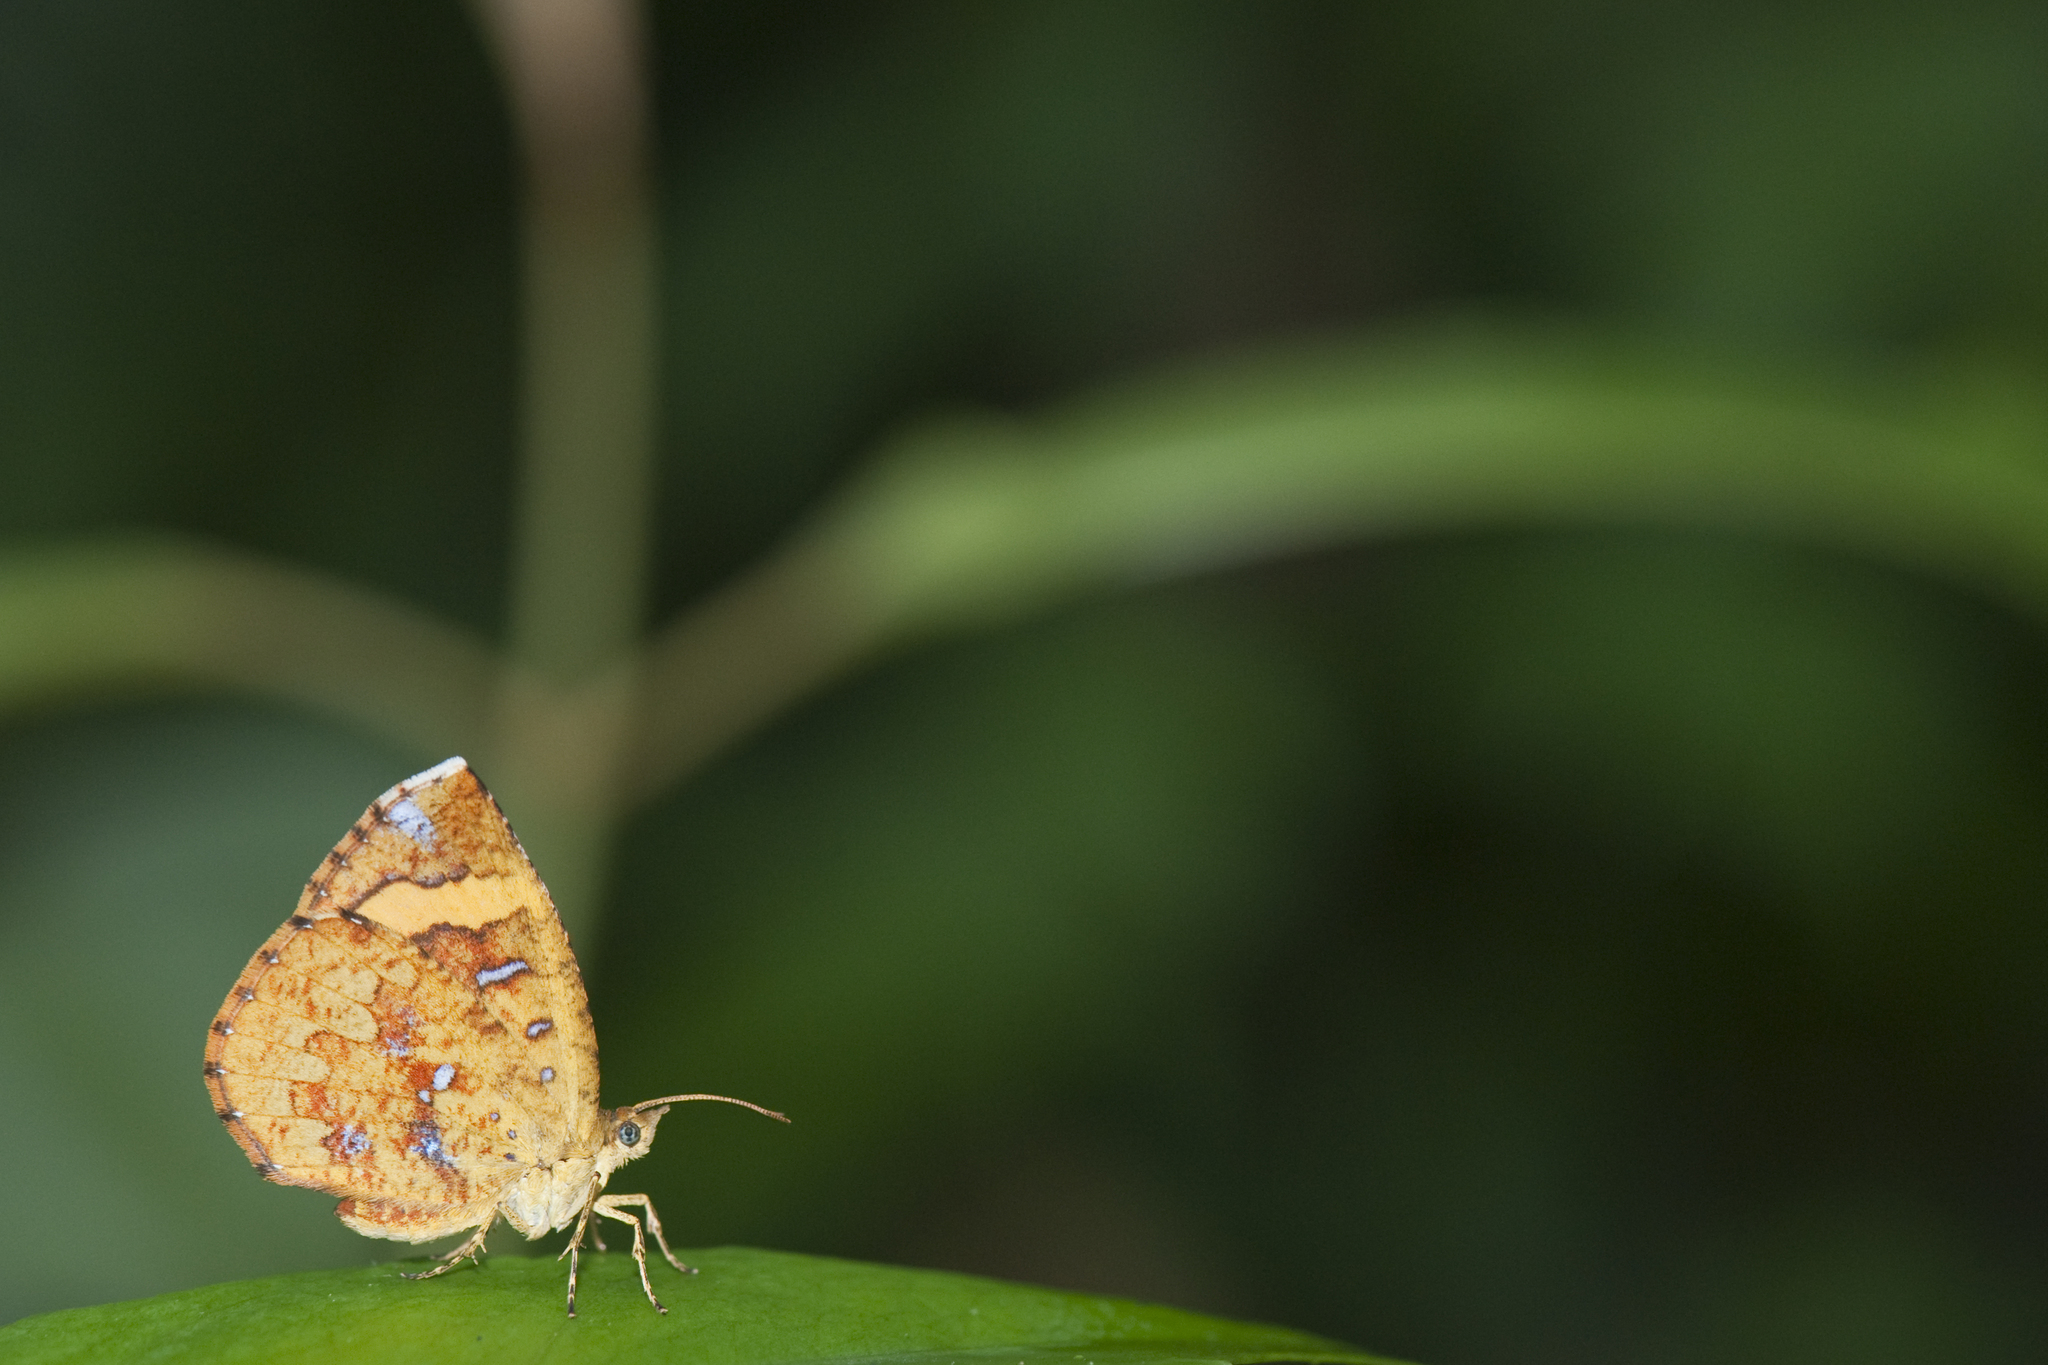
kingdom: Animalia
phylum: Arthropoda
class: Insecta
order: Lepidoptera
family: Callidulidae
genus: Petavia
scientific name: Petavia attenuata
